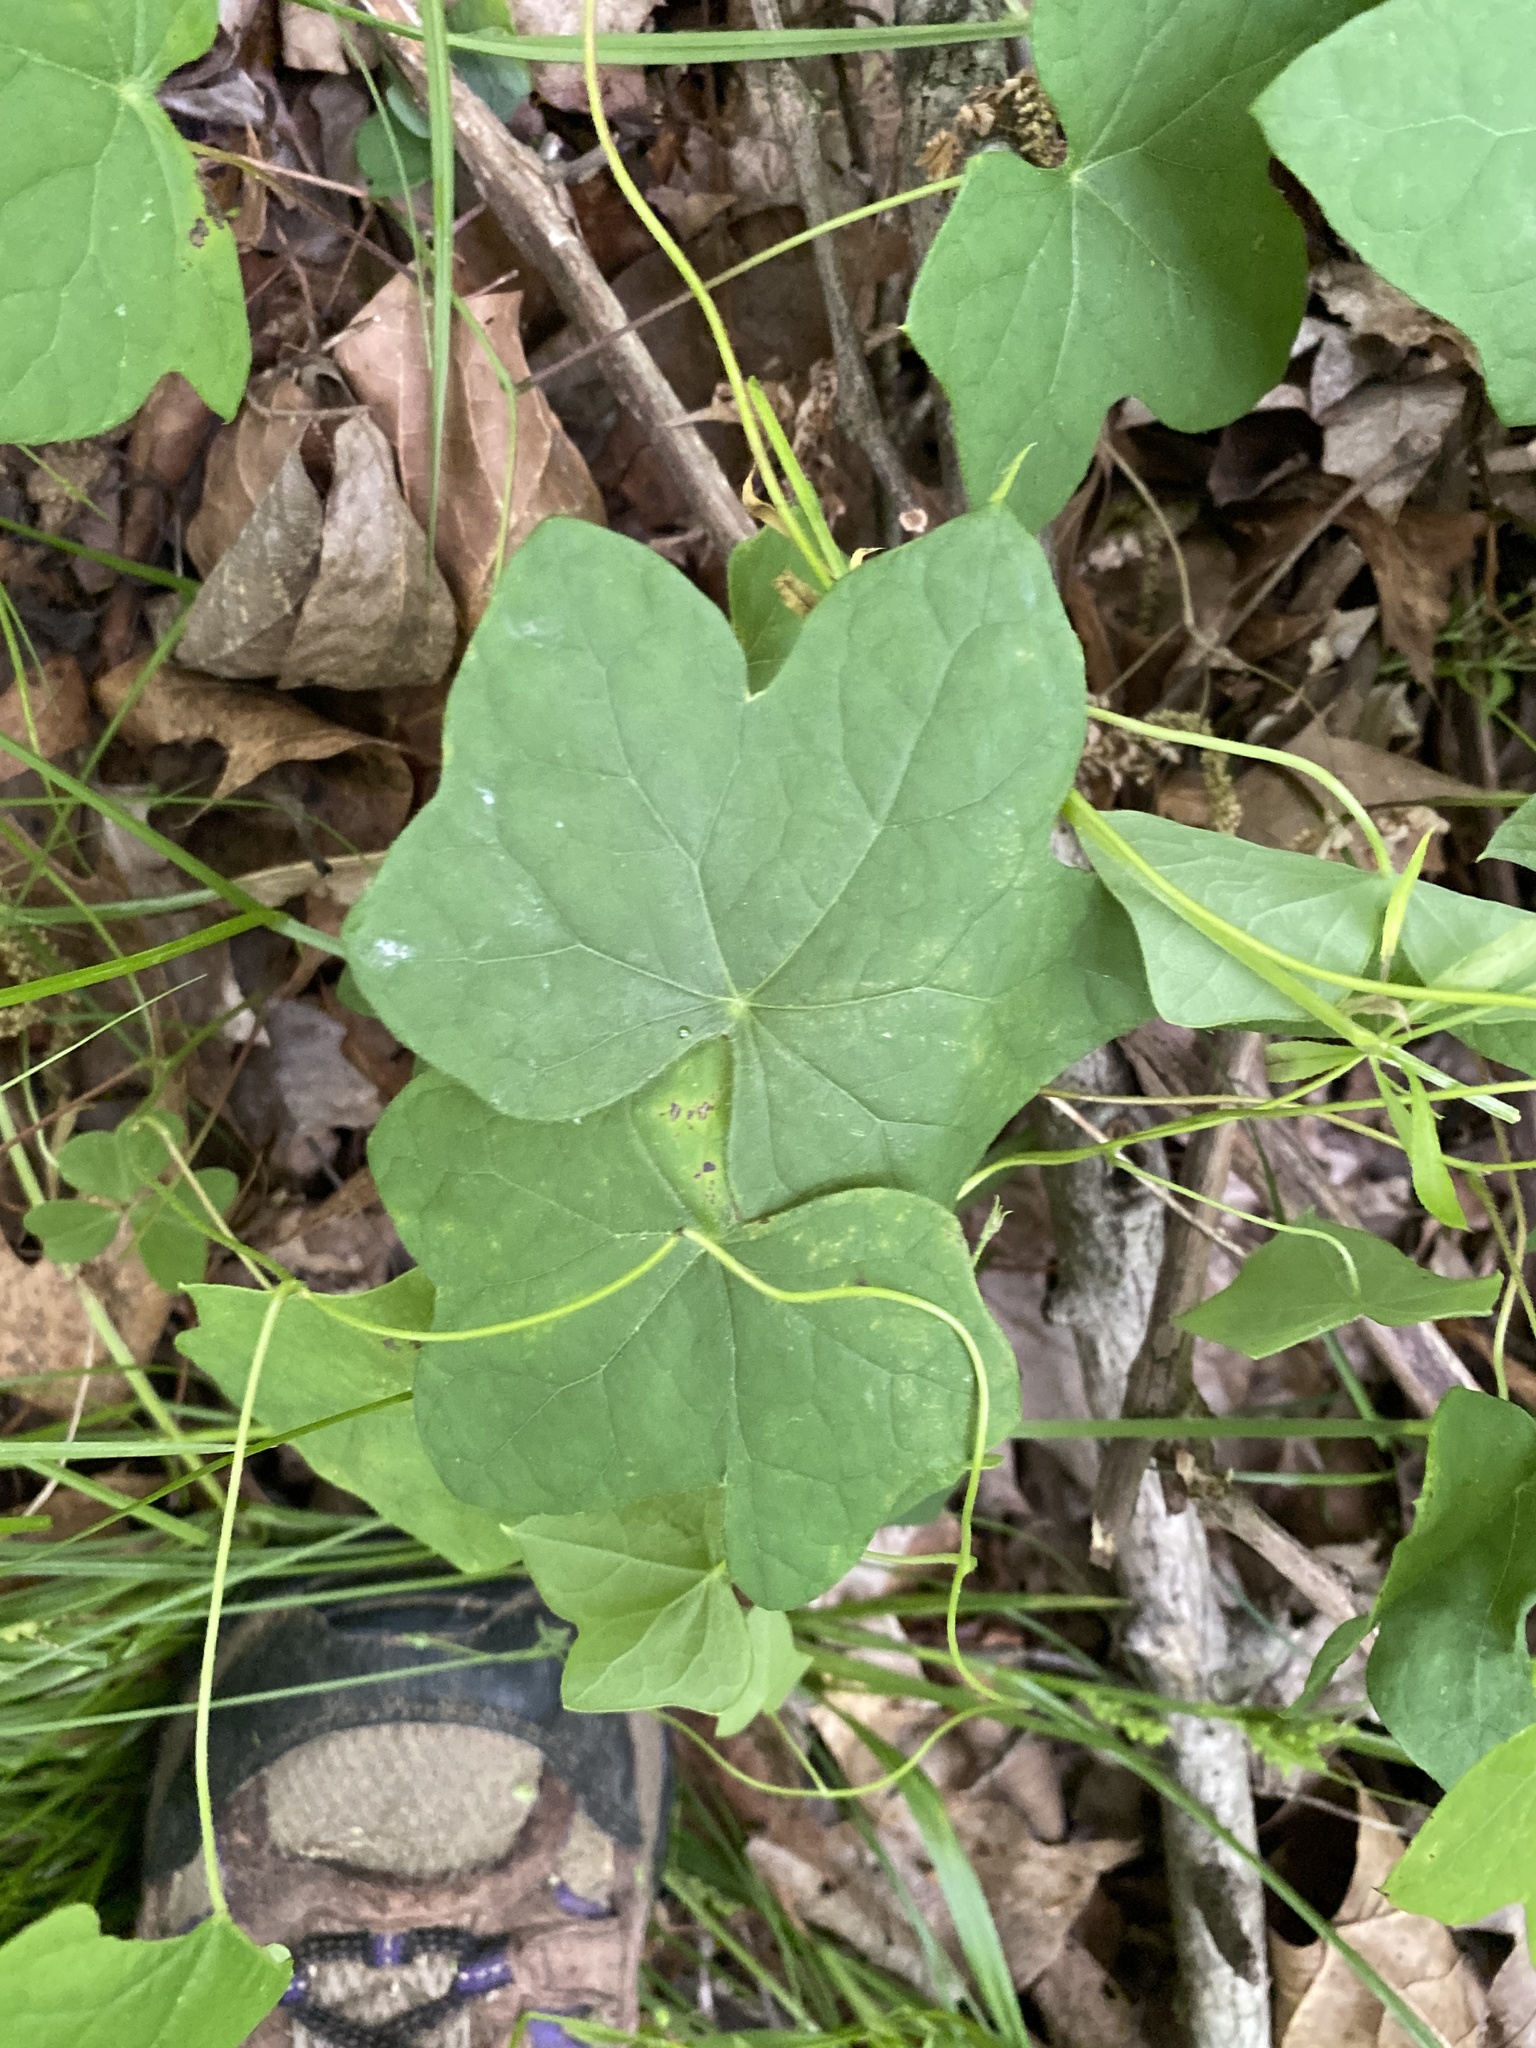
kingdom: Plantae
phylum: Tracheophyta
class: Magnoliopsida
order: Ranunculales
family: Menispermaceae
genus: Menispermum
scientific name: Menispermum canadense
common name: Moonseed
